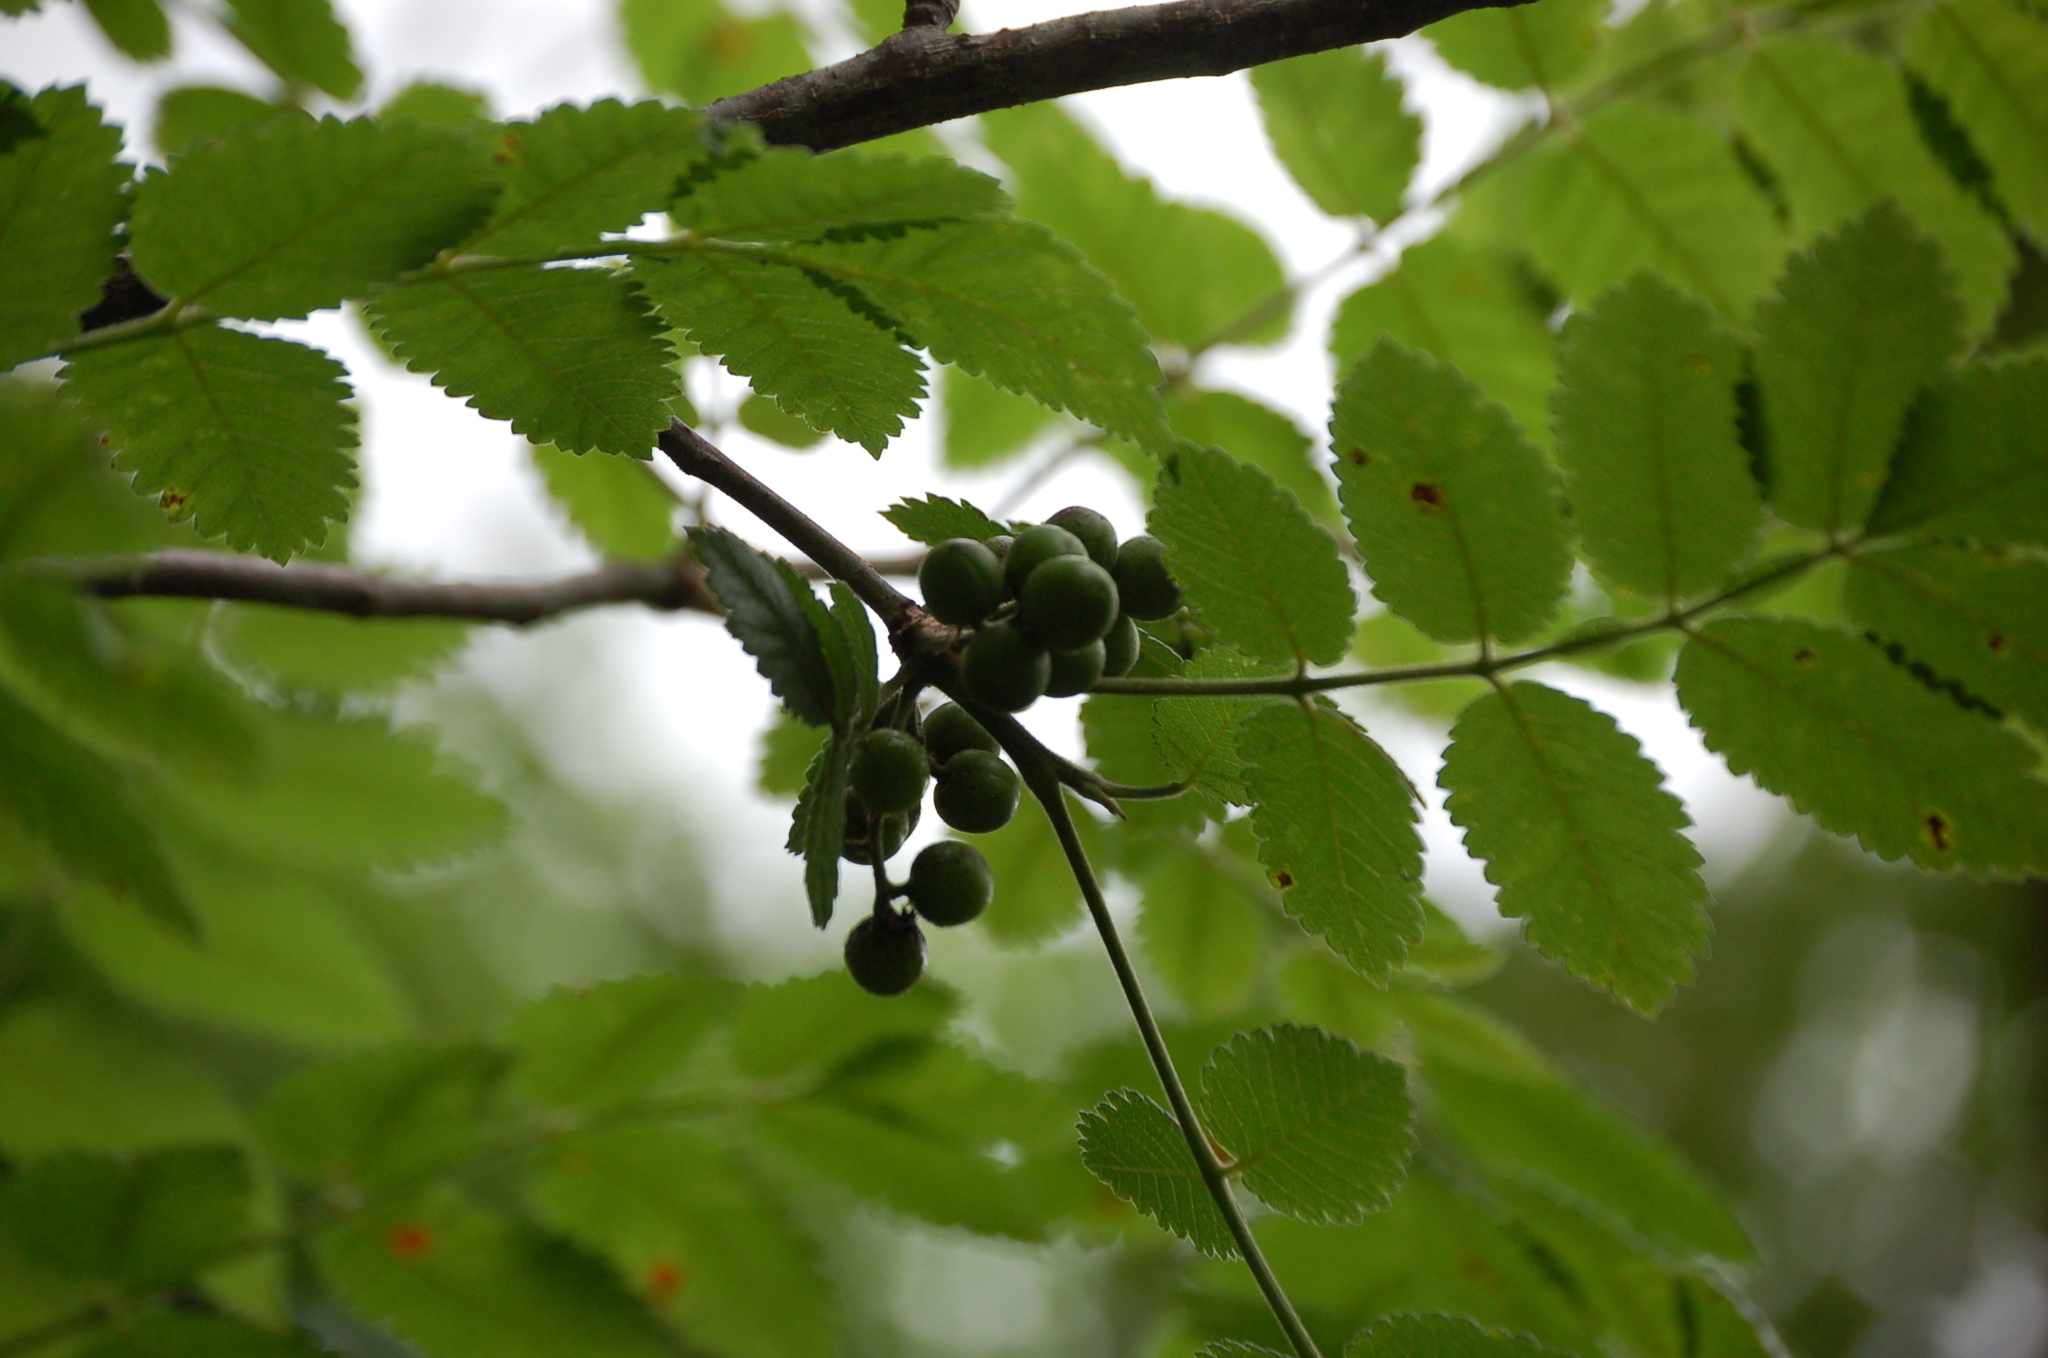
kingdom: Plantae
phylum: Tracheophyta
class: Magnoliopsida
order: Sapindales
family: Burseraceae
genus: Bursera
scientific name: Bursera tomentosa
